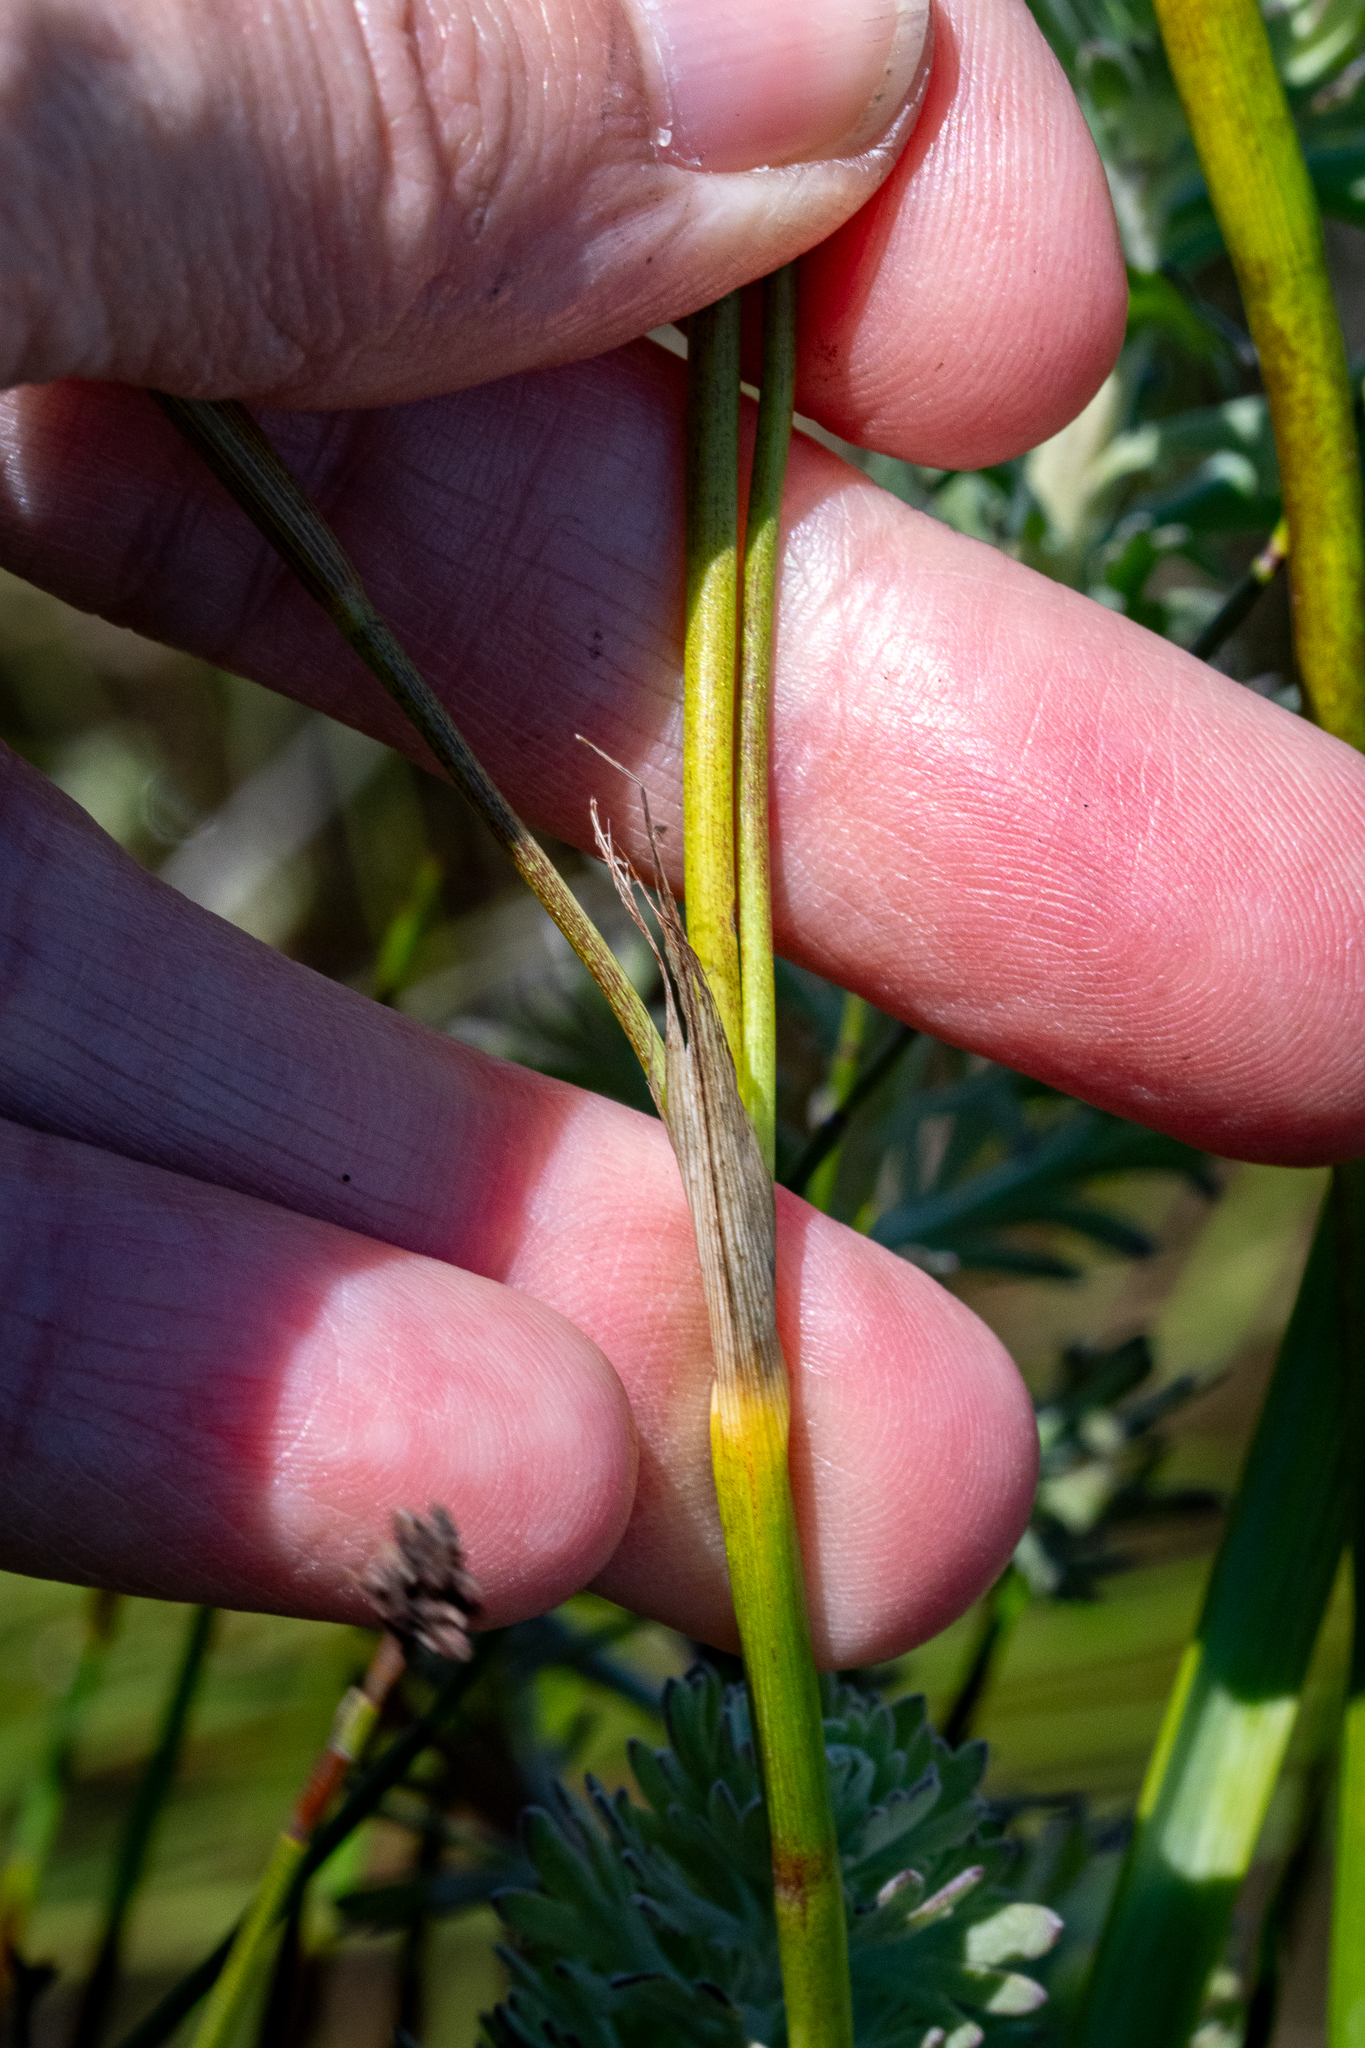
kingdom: Plantae
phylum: Tracheophyta
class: Liliopsida
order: Asparagales
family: Iridaceae
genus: Moraea
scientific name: Moraea flaccida
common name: One-leaf cape-tulip
